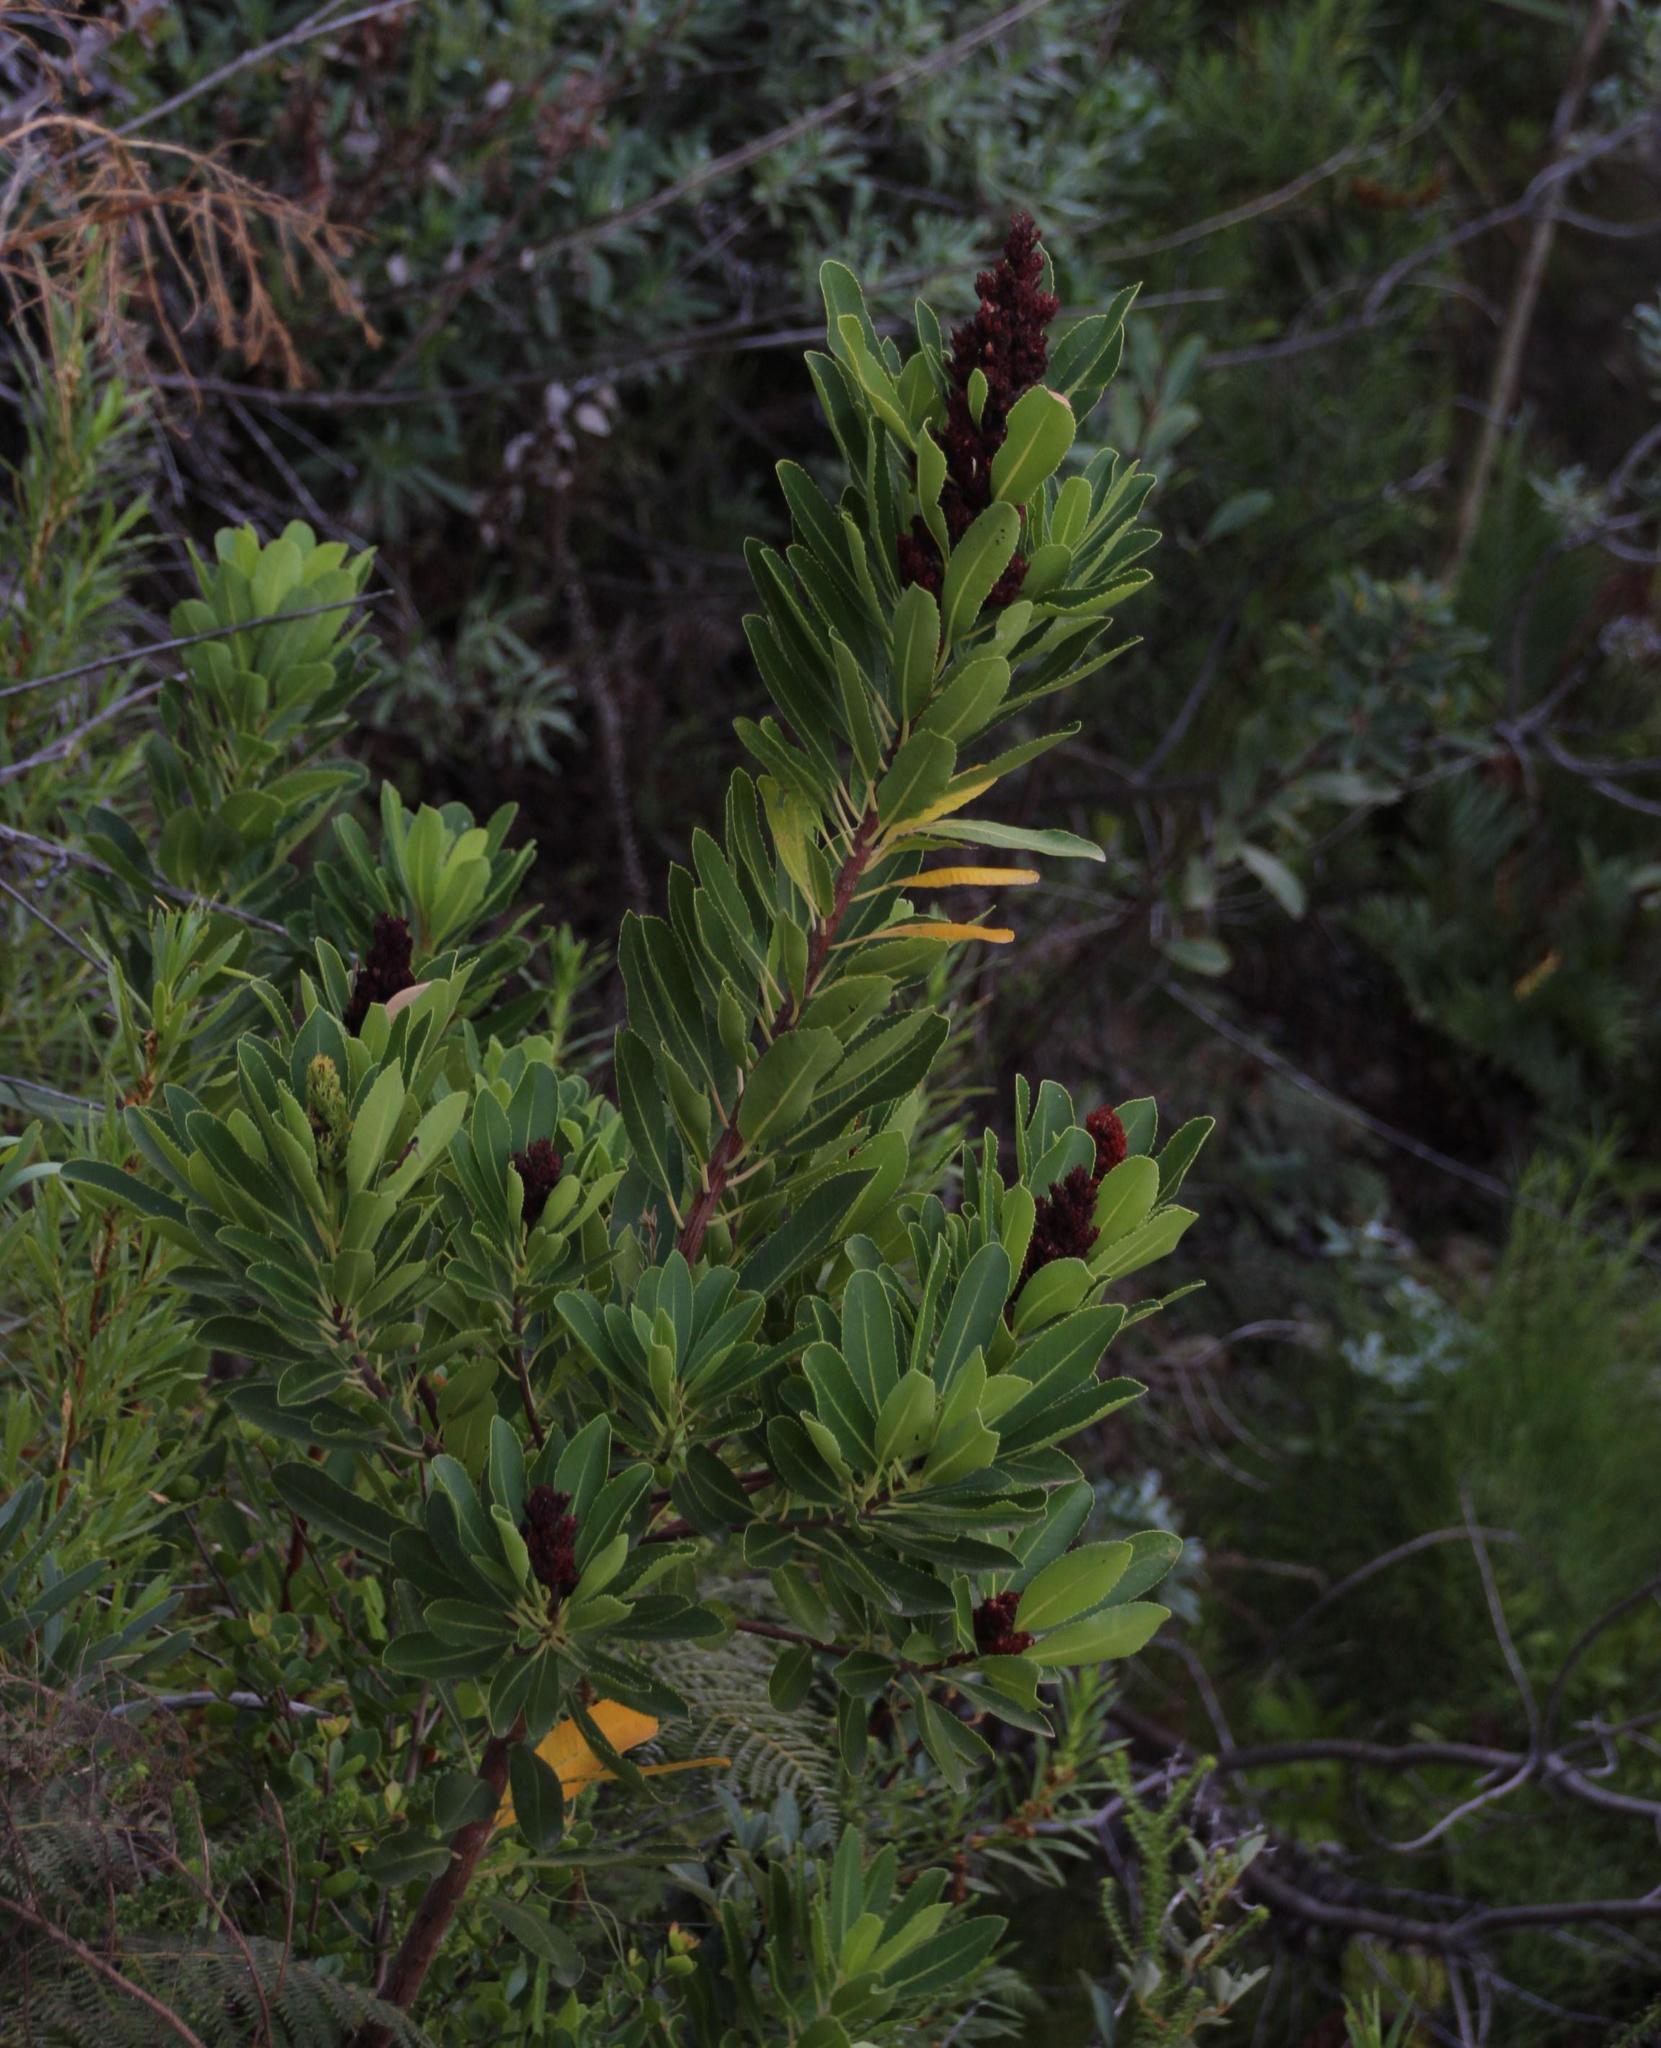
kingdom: Plantae
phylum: Tracheophyta
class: Magnoliopsida
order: Sapindales
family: Anacardiaceae
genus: Laurophyllus
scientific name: Laurophyllus capensis
